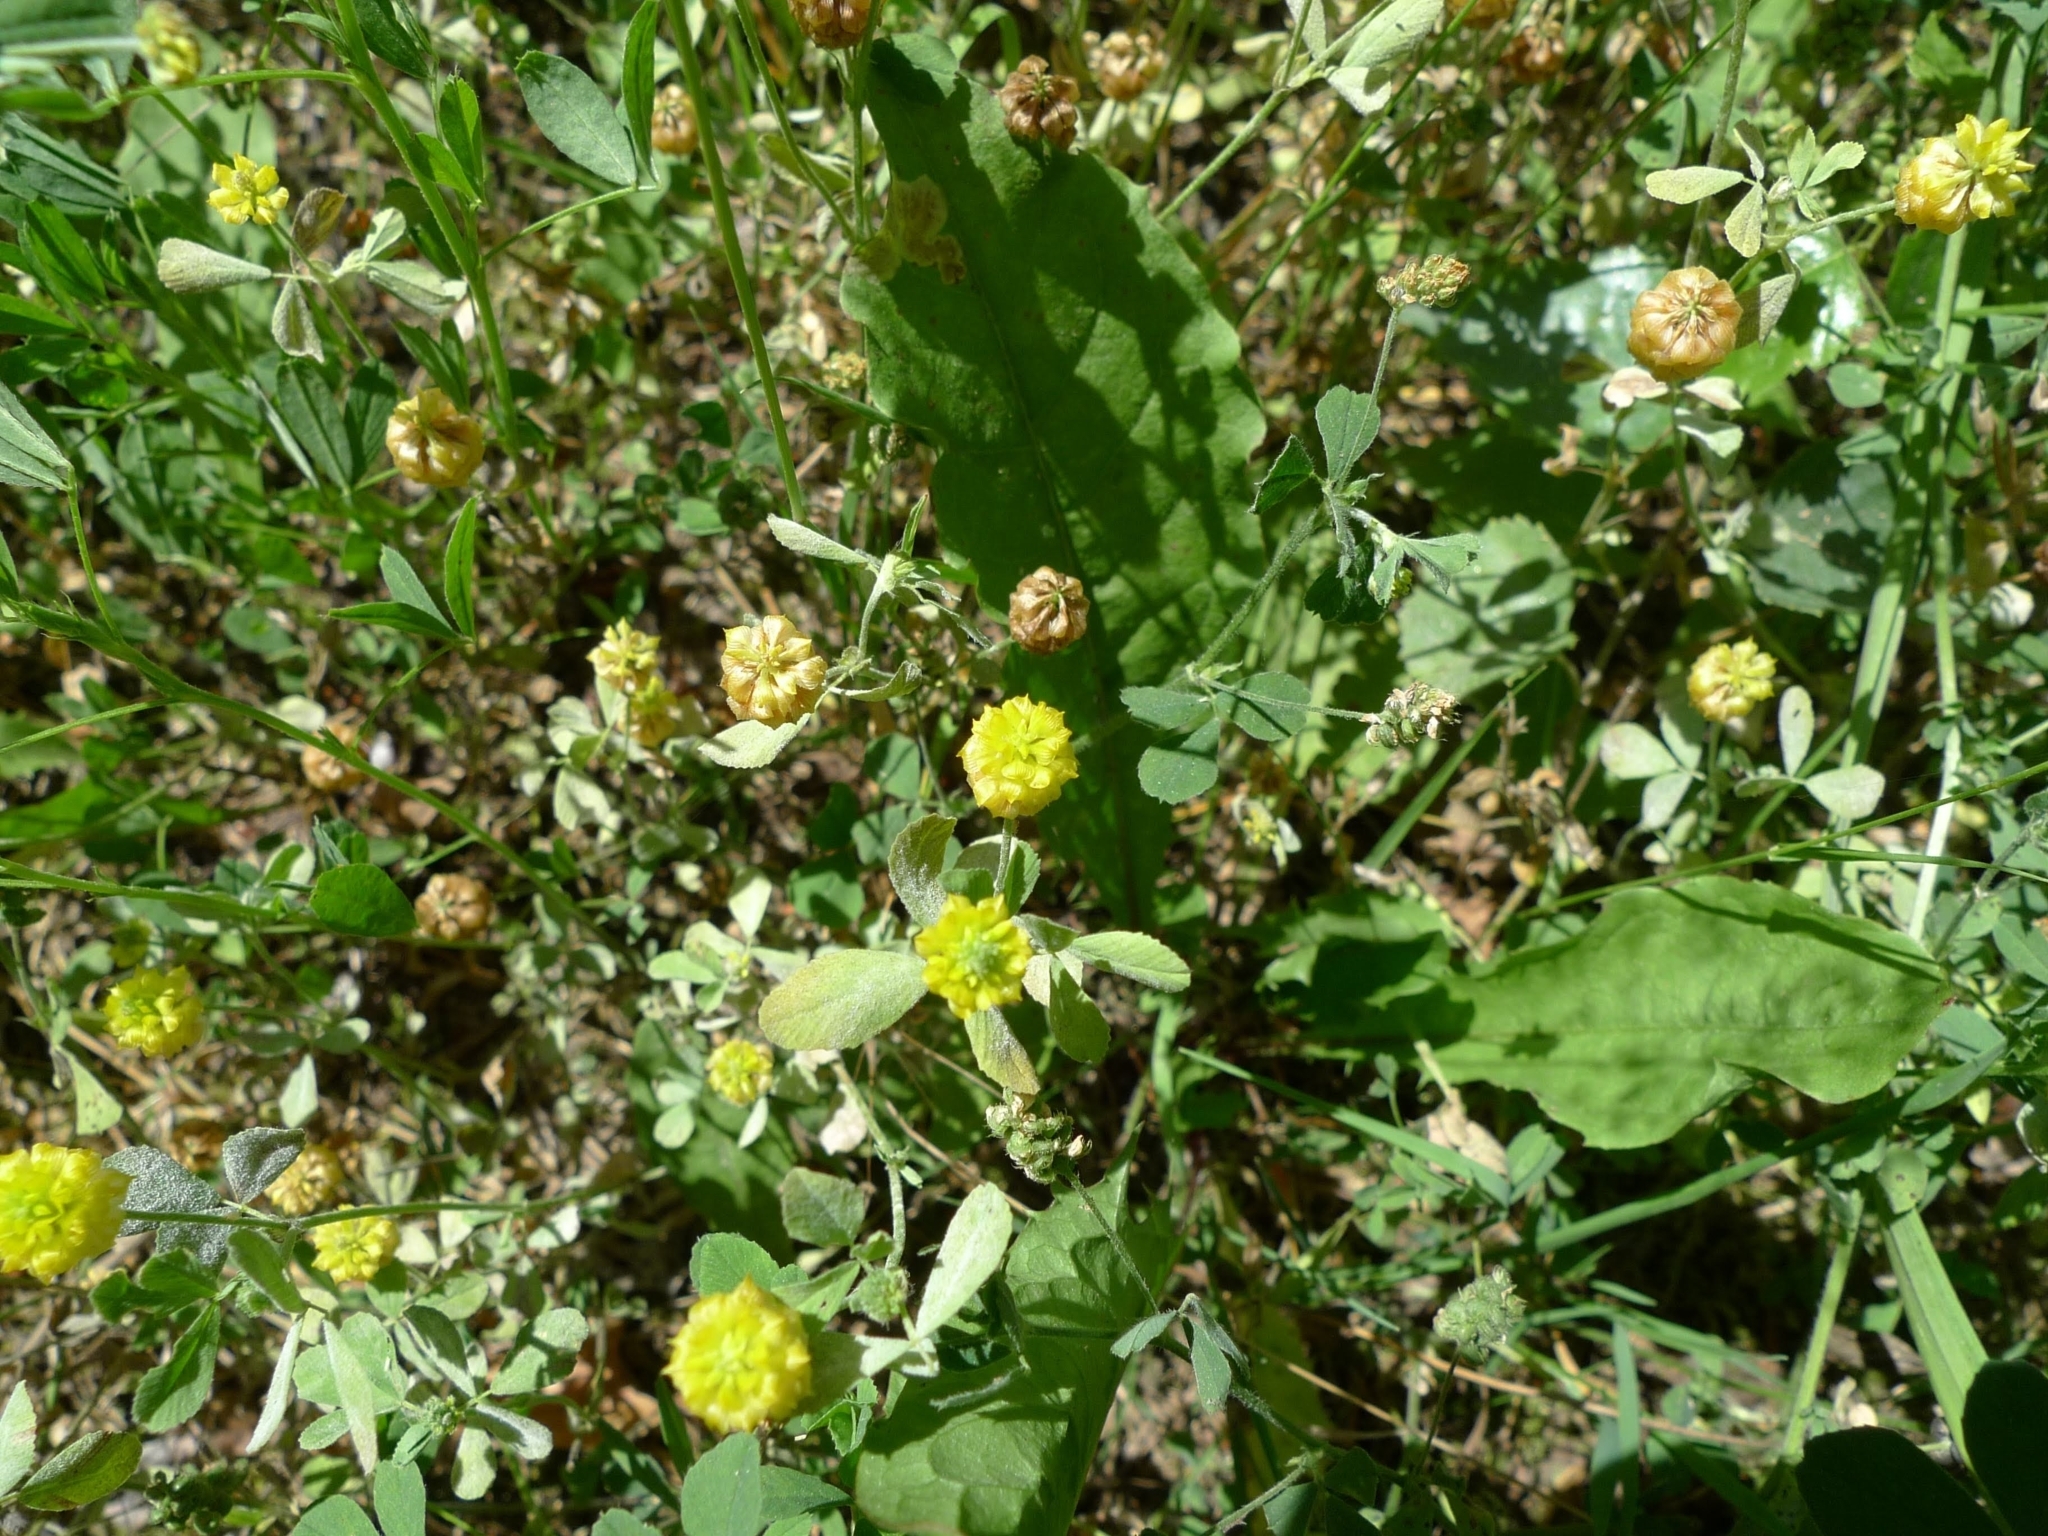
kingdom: Plantae
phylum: Tracheophyta
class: Magnoliopsida
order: Fabales
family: Fabaceae
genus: Trifolium
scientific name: Trifolium campestre
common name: Field clover
